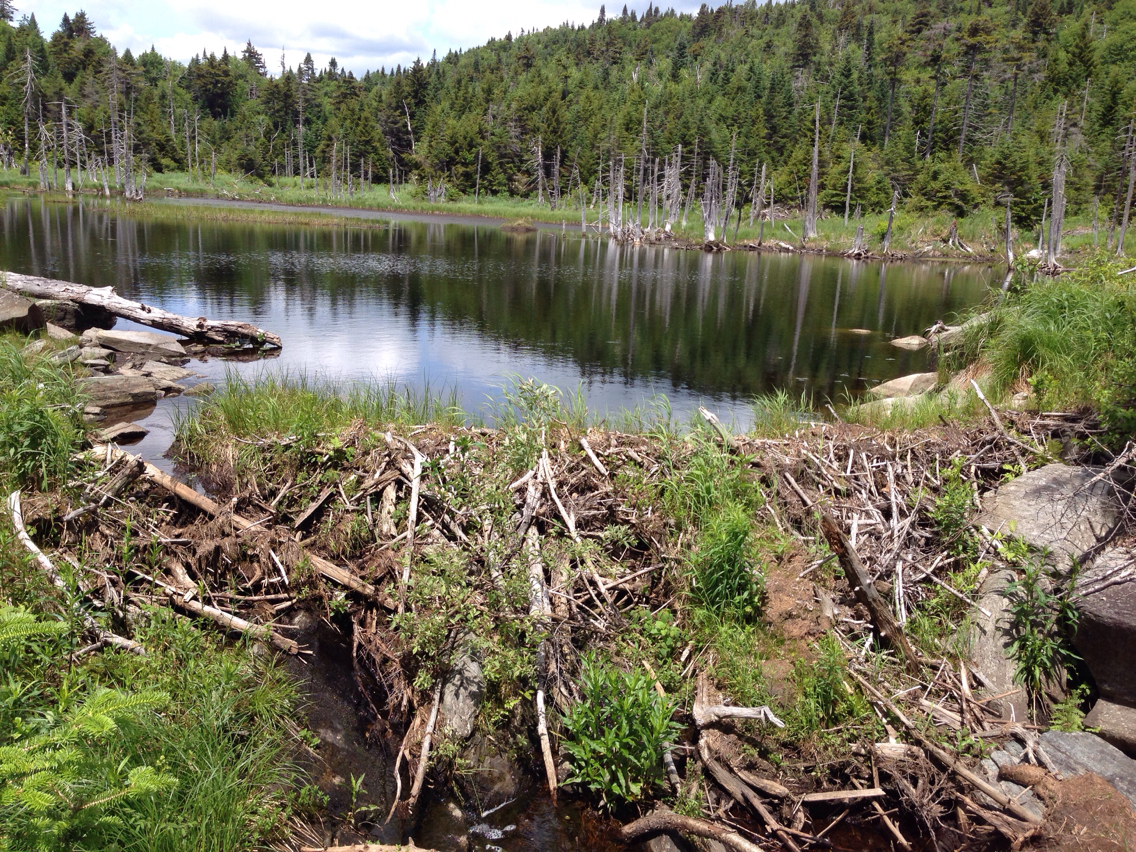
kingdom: Animalia
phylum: Chordata
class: Mammalia
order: Rodentia
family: Castoridae
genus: Castor
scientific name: Castor canadensis
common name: American beaver
